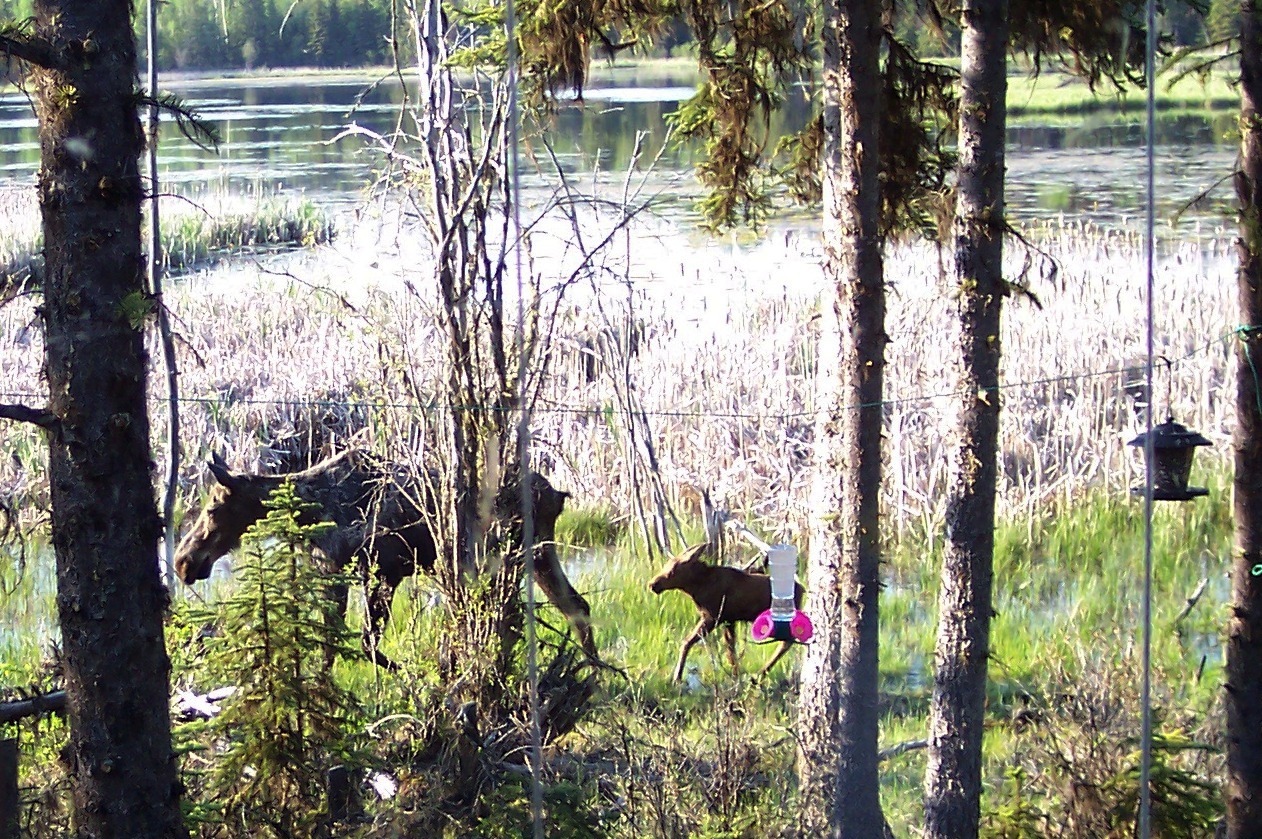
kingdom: Animalia
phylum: Chordata
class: Mammalia
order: Artiodactyla
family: Cervidae
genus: Alces
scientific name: Alces alces
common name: Moose
